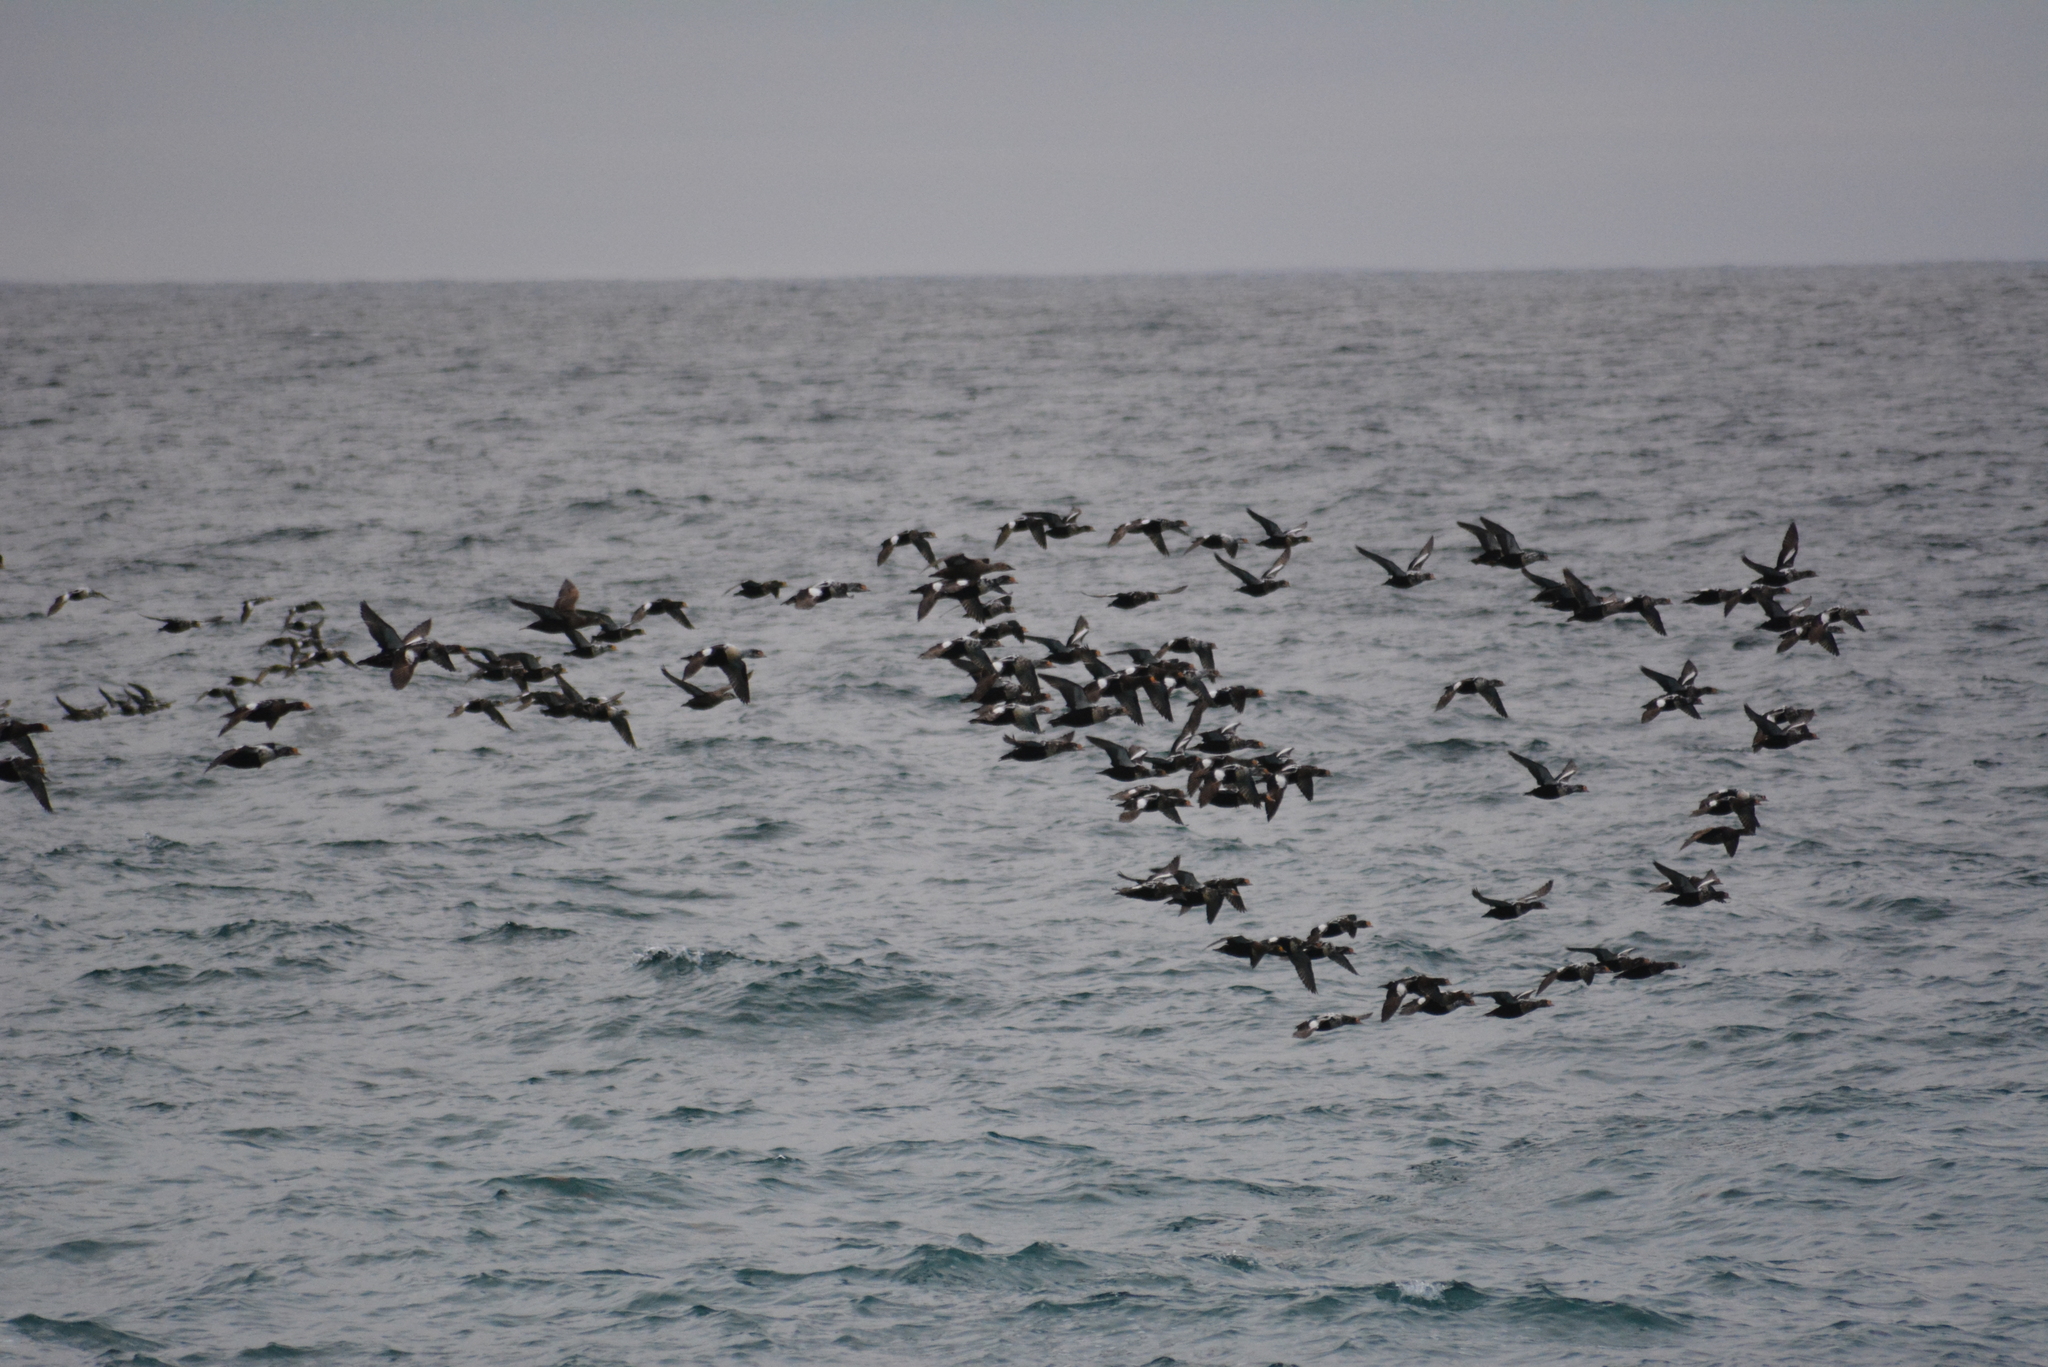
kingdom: Animalia
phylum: Chordata
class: Aves
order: Anseriformes
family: Anatidae
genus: Somateria
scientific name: Somateria spectabilis
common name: King eider
